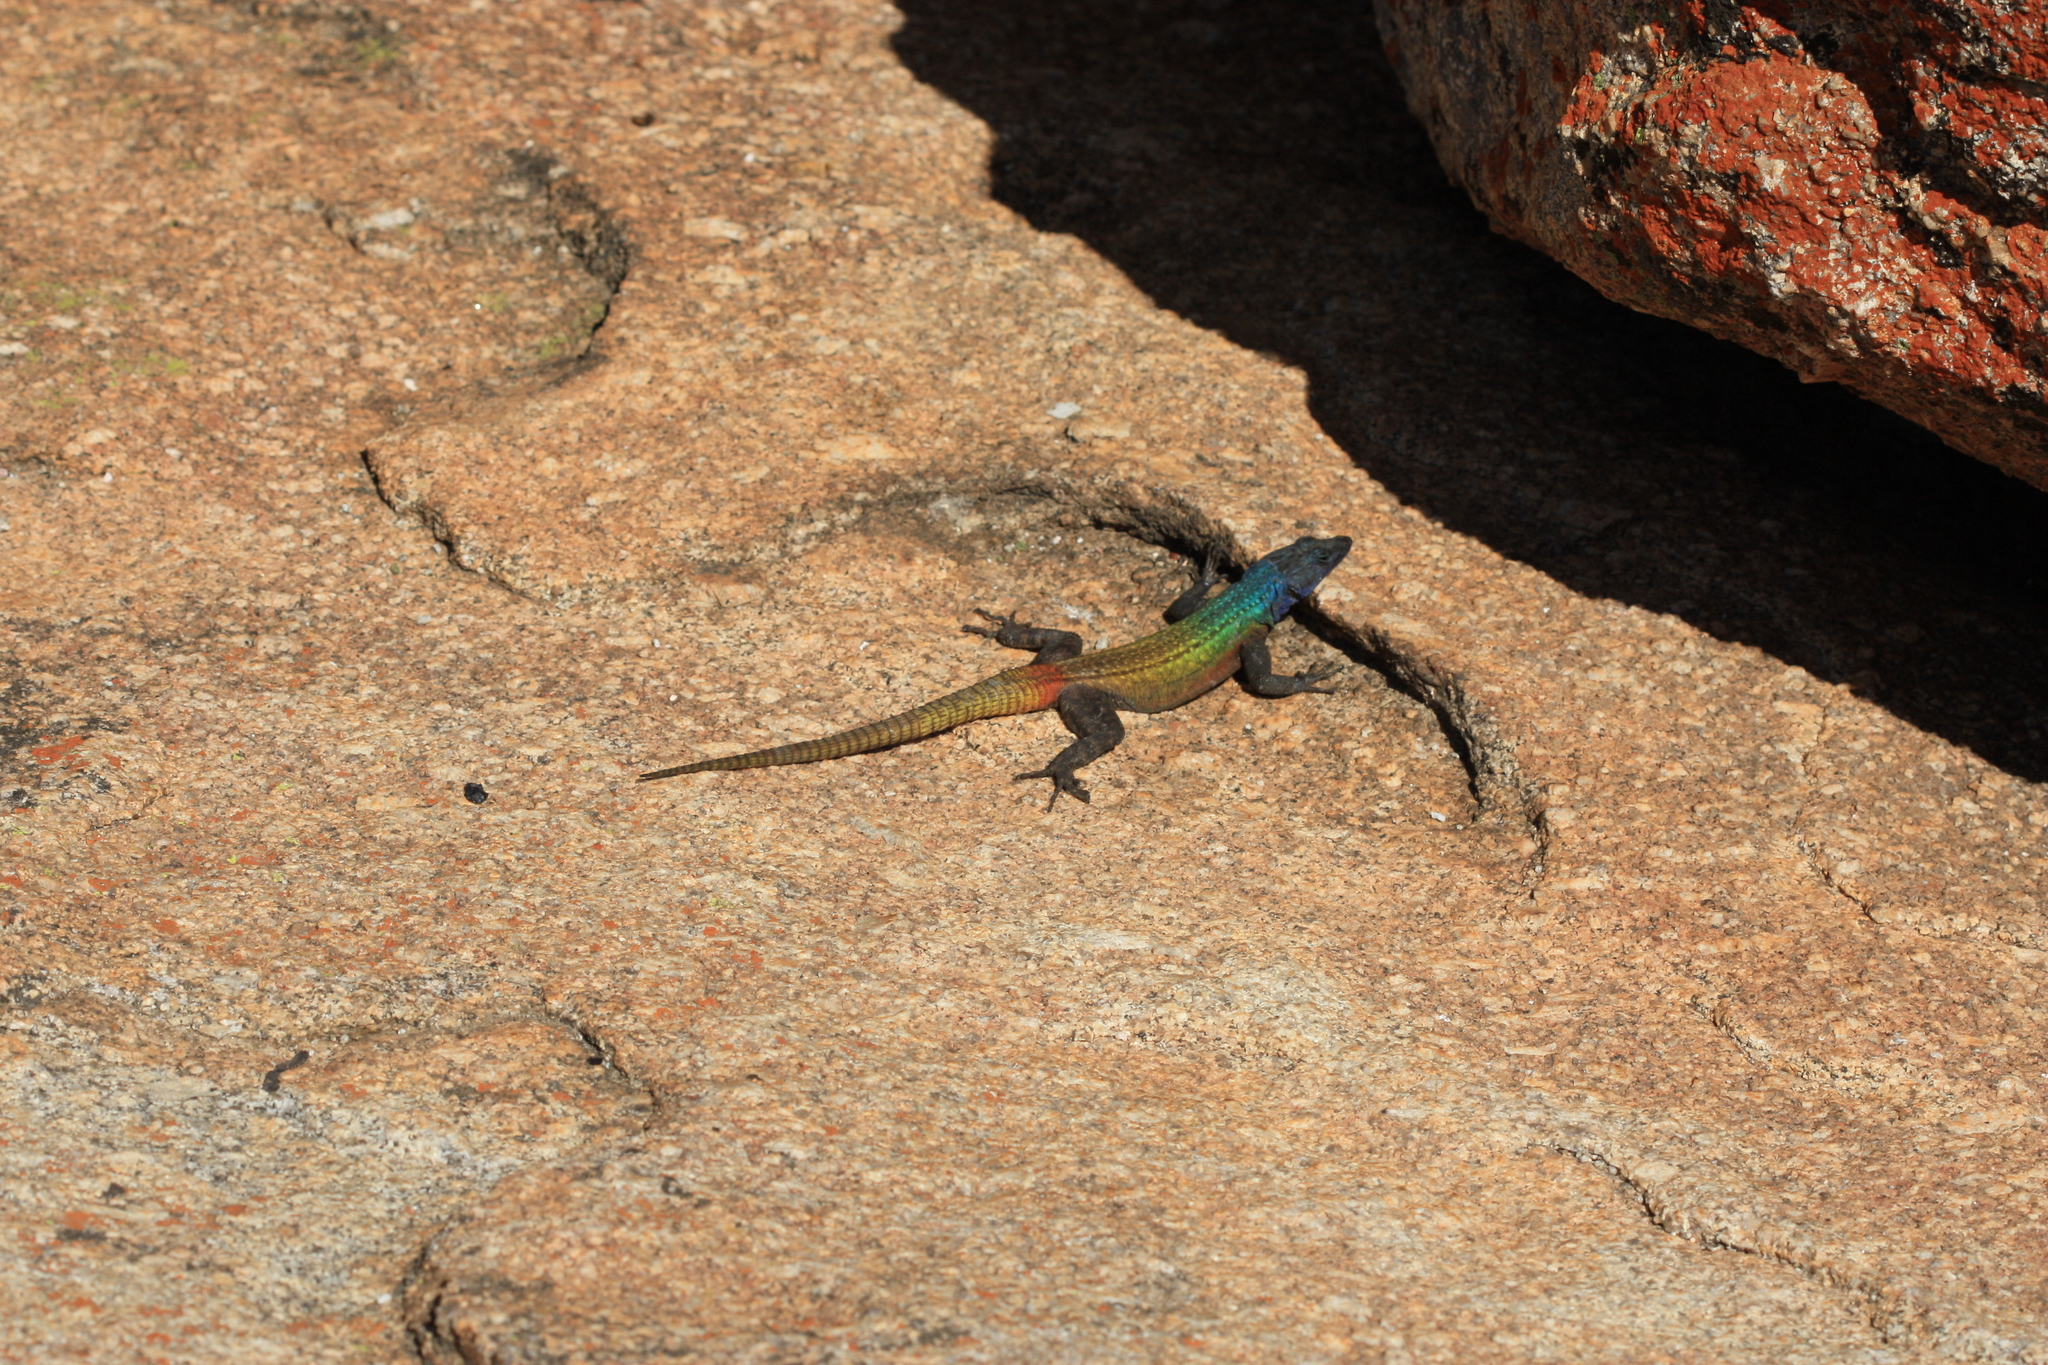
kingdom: Animalia
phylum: Chordata
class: Squamata
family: Cordylidae
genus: Platysaurus
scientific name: Platysaurus intermedius
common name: Common flat lizard
